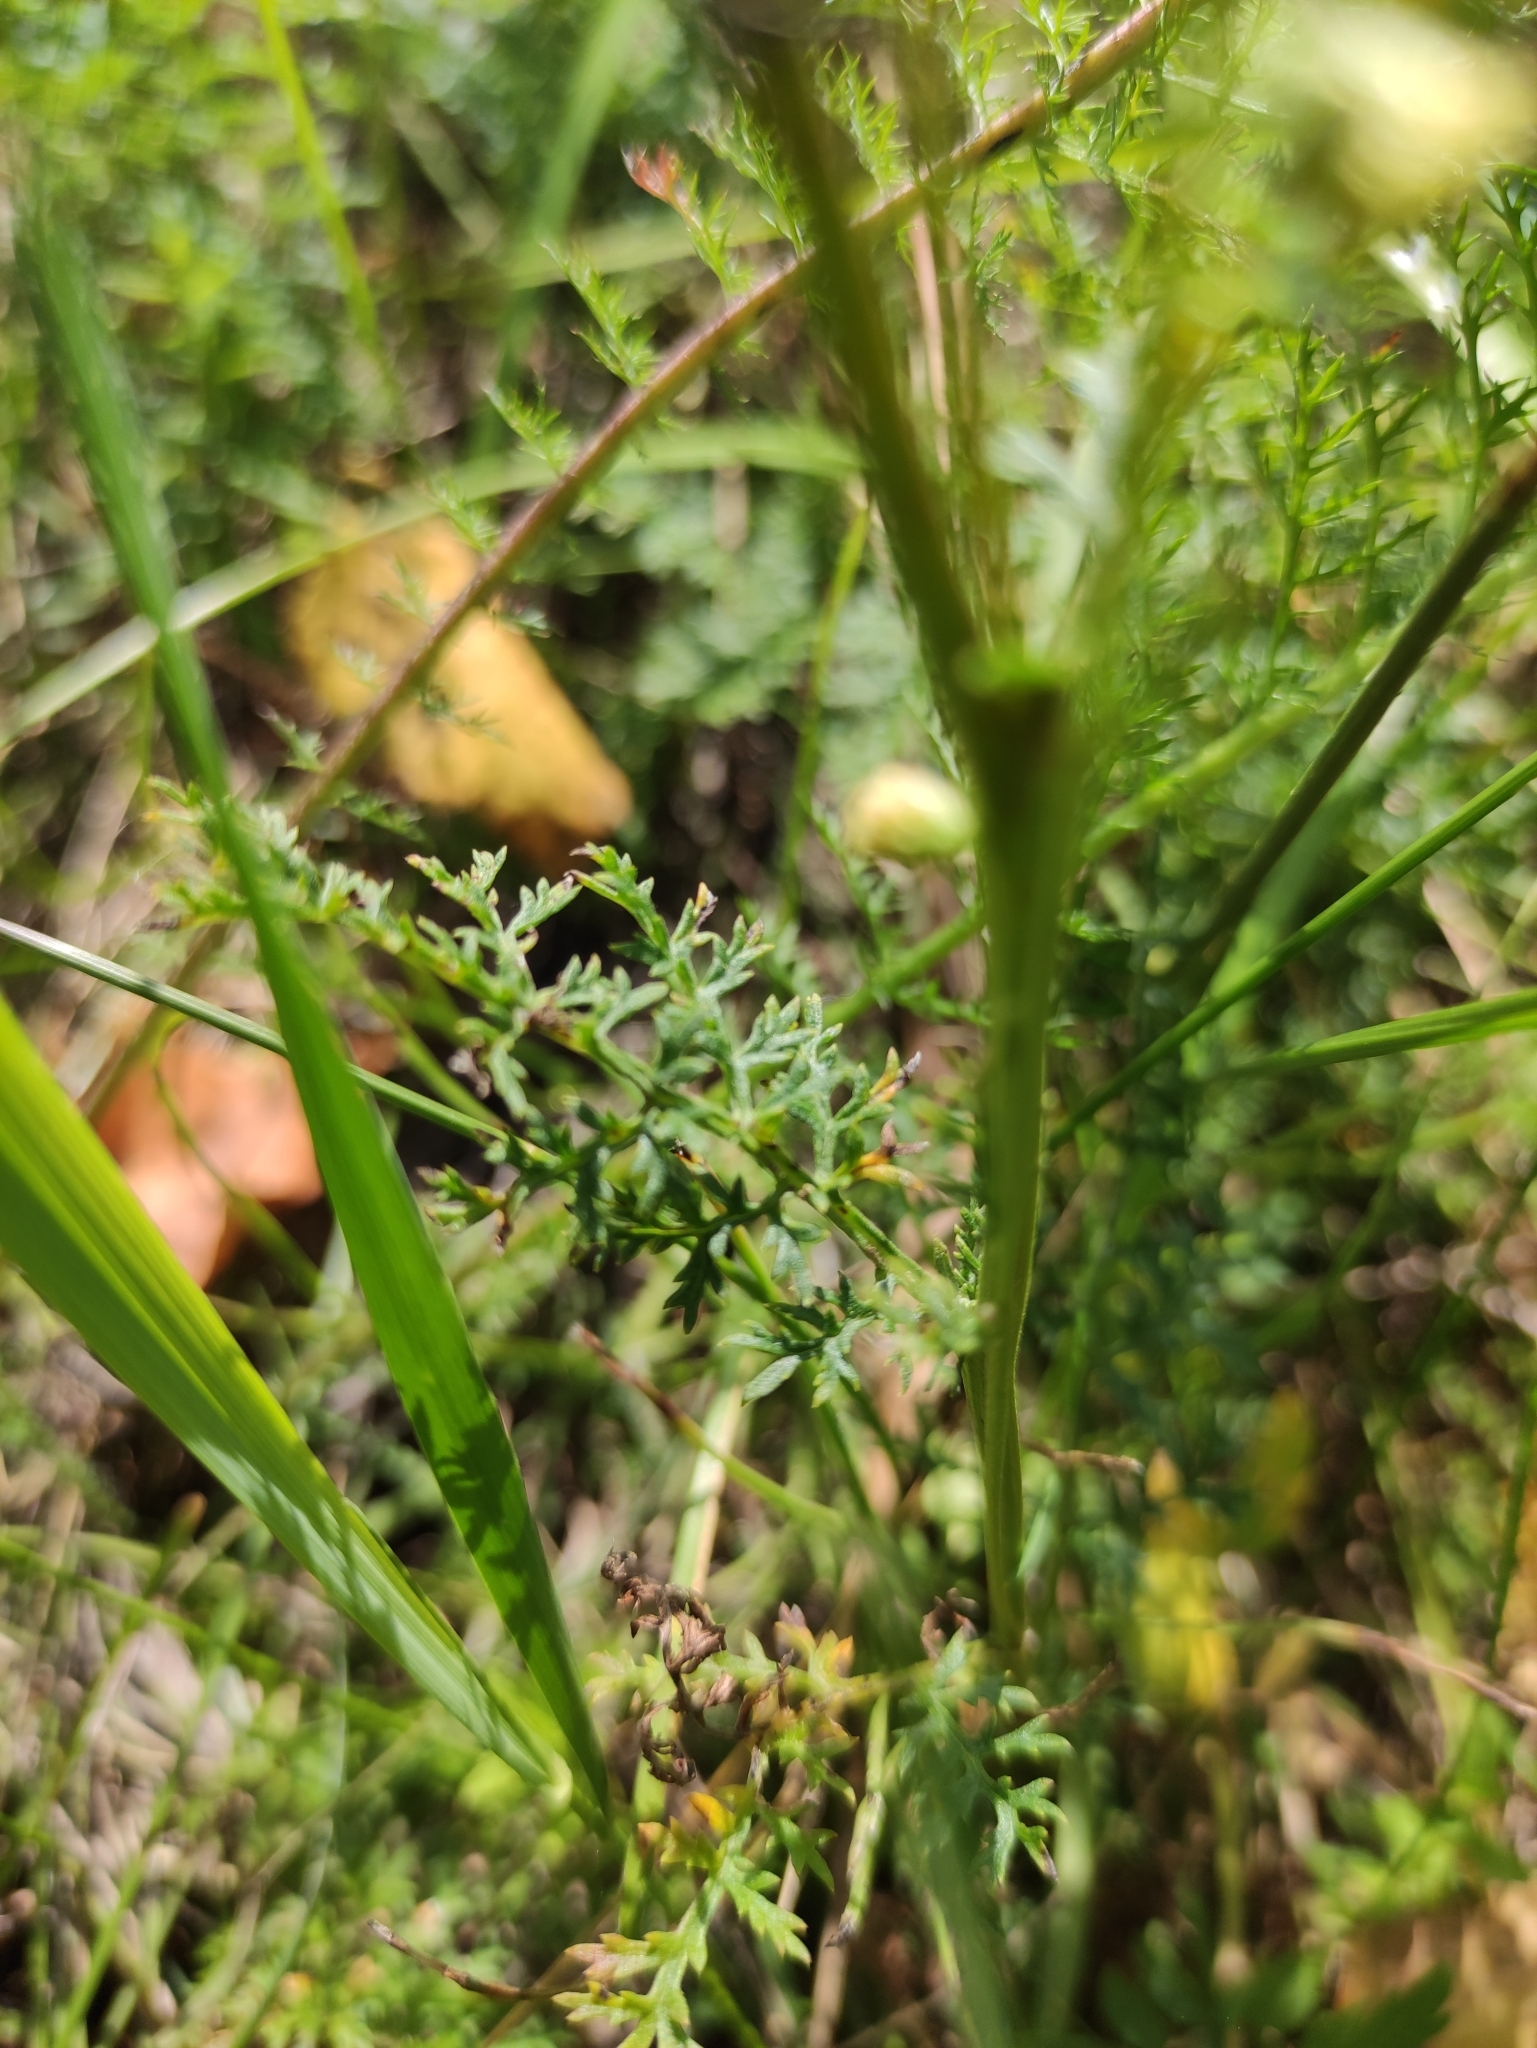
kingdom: Plantae
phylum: Tracheophyta
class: Magnoliopsida
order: Asterales
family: Asteraceae
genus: Artemisia
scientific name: Artemisia tanacetifolia
